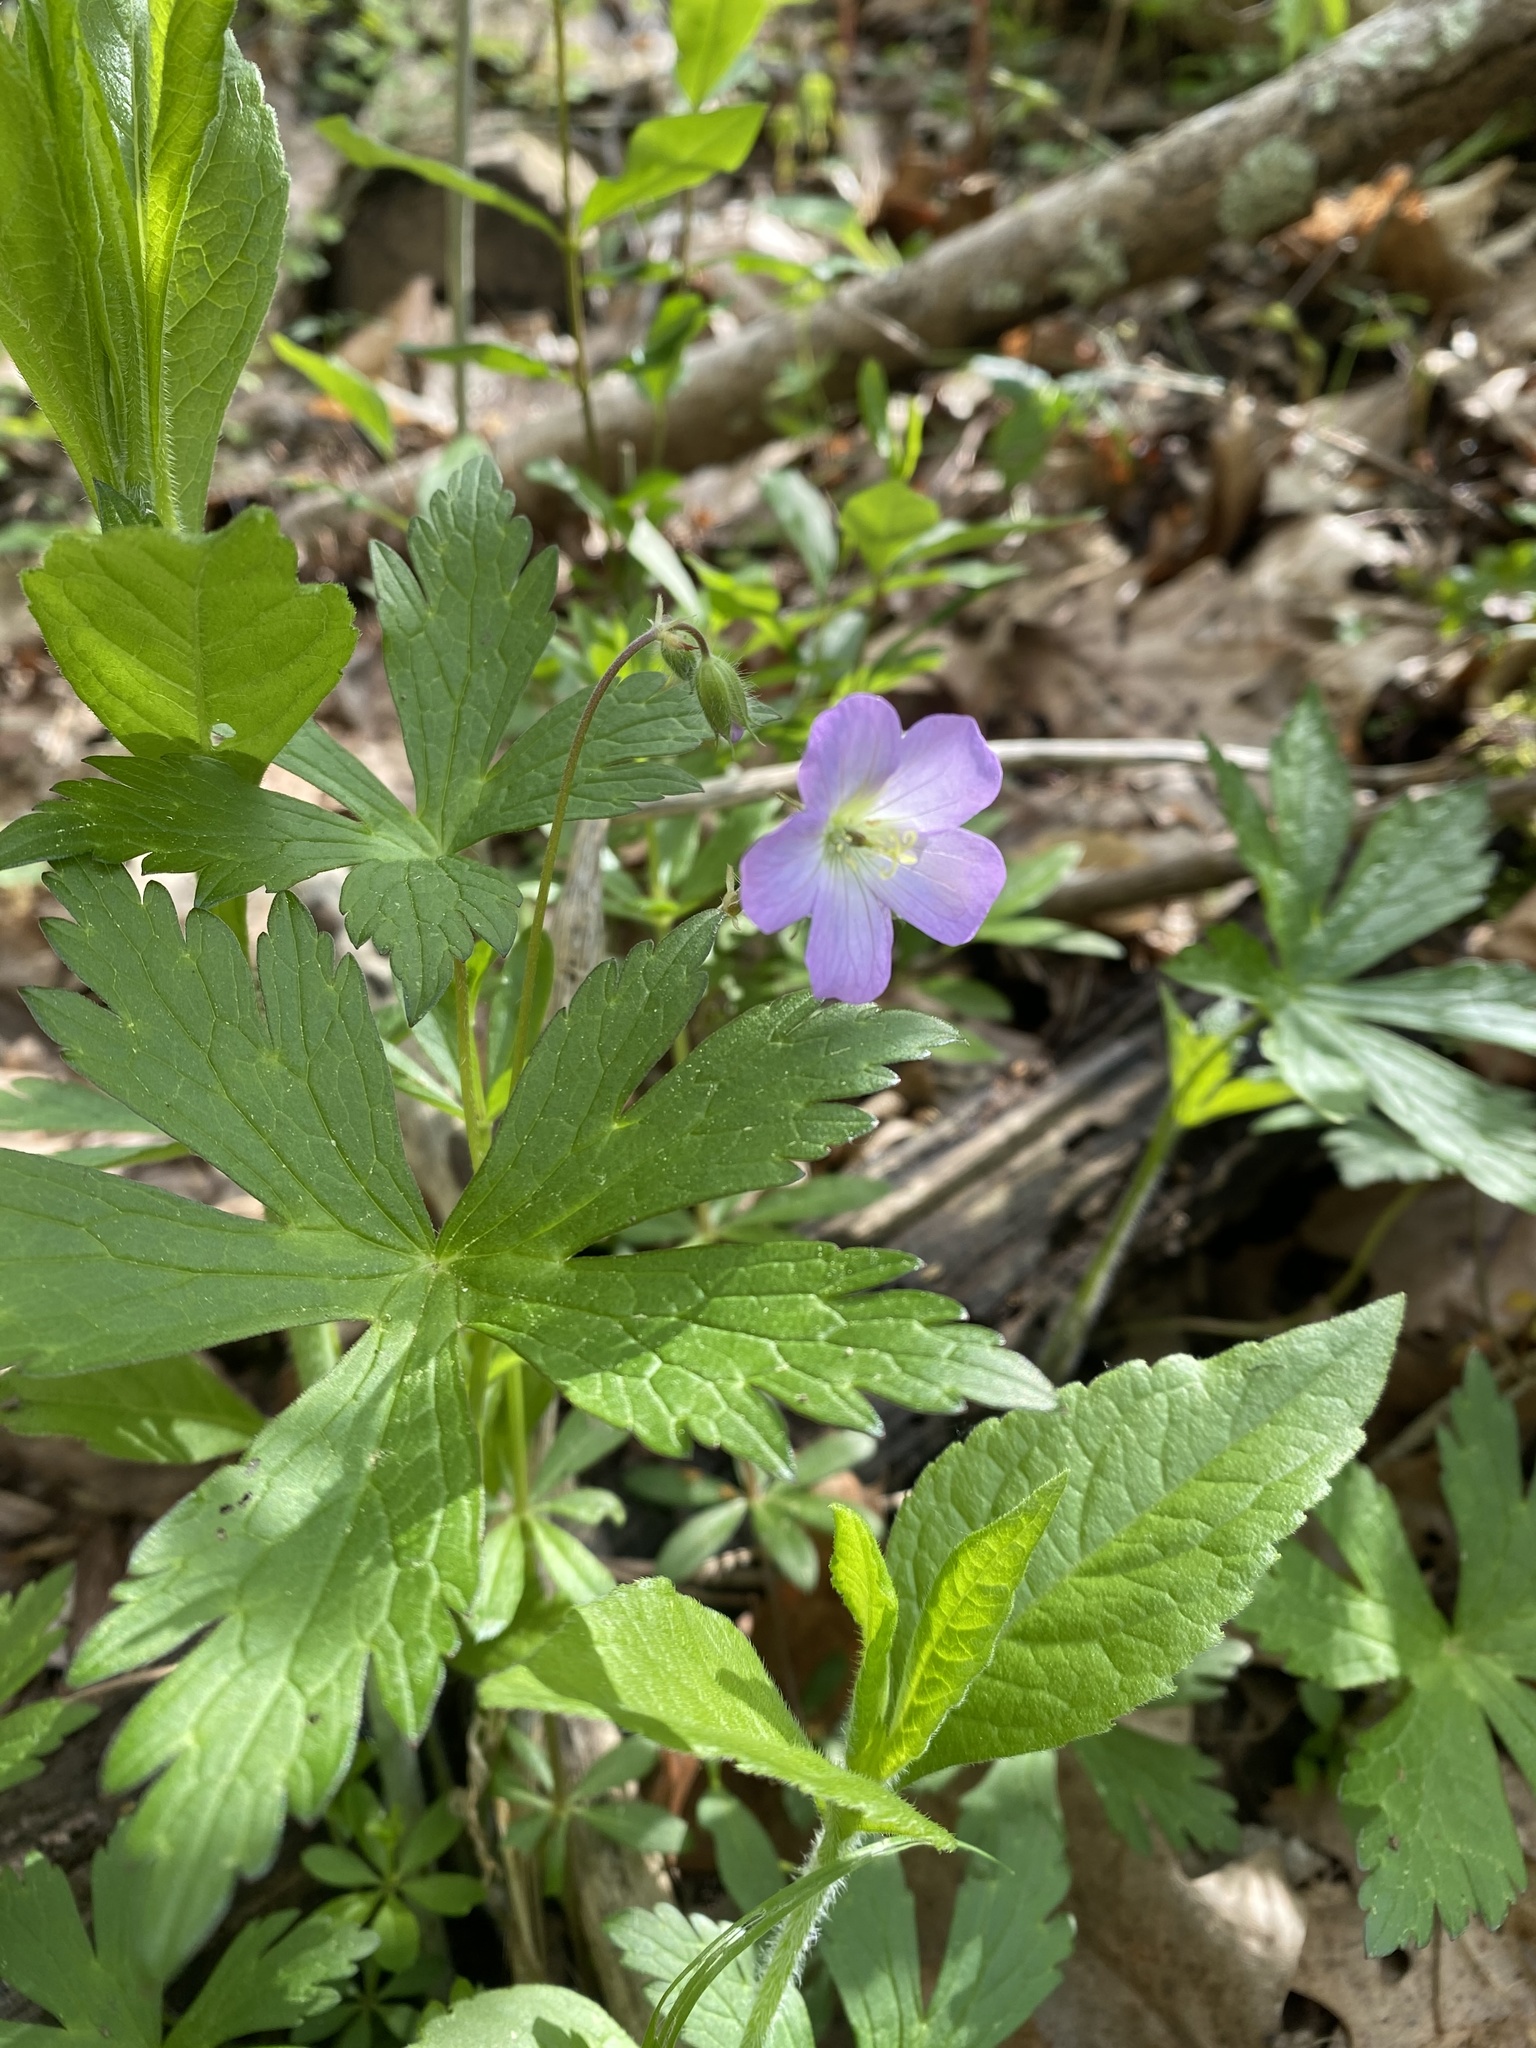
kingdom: Plantae
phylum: Tracheophyta
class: Magnoliopsida
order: Geraniales
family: Geraniaceae
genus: Geranium
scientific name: Geranium maculatum
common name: Spotted geranium
